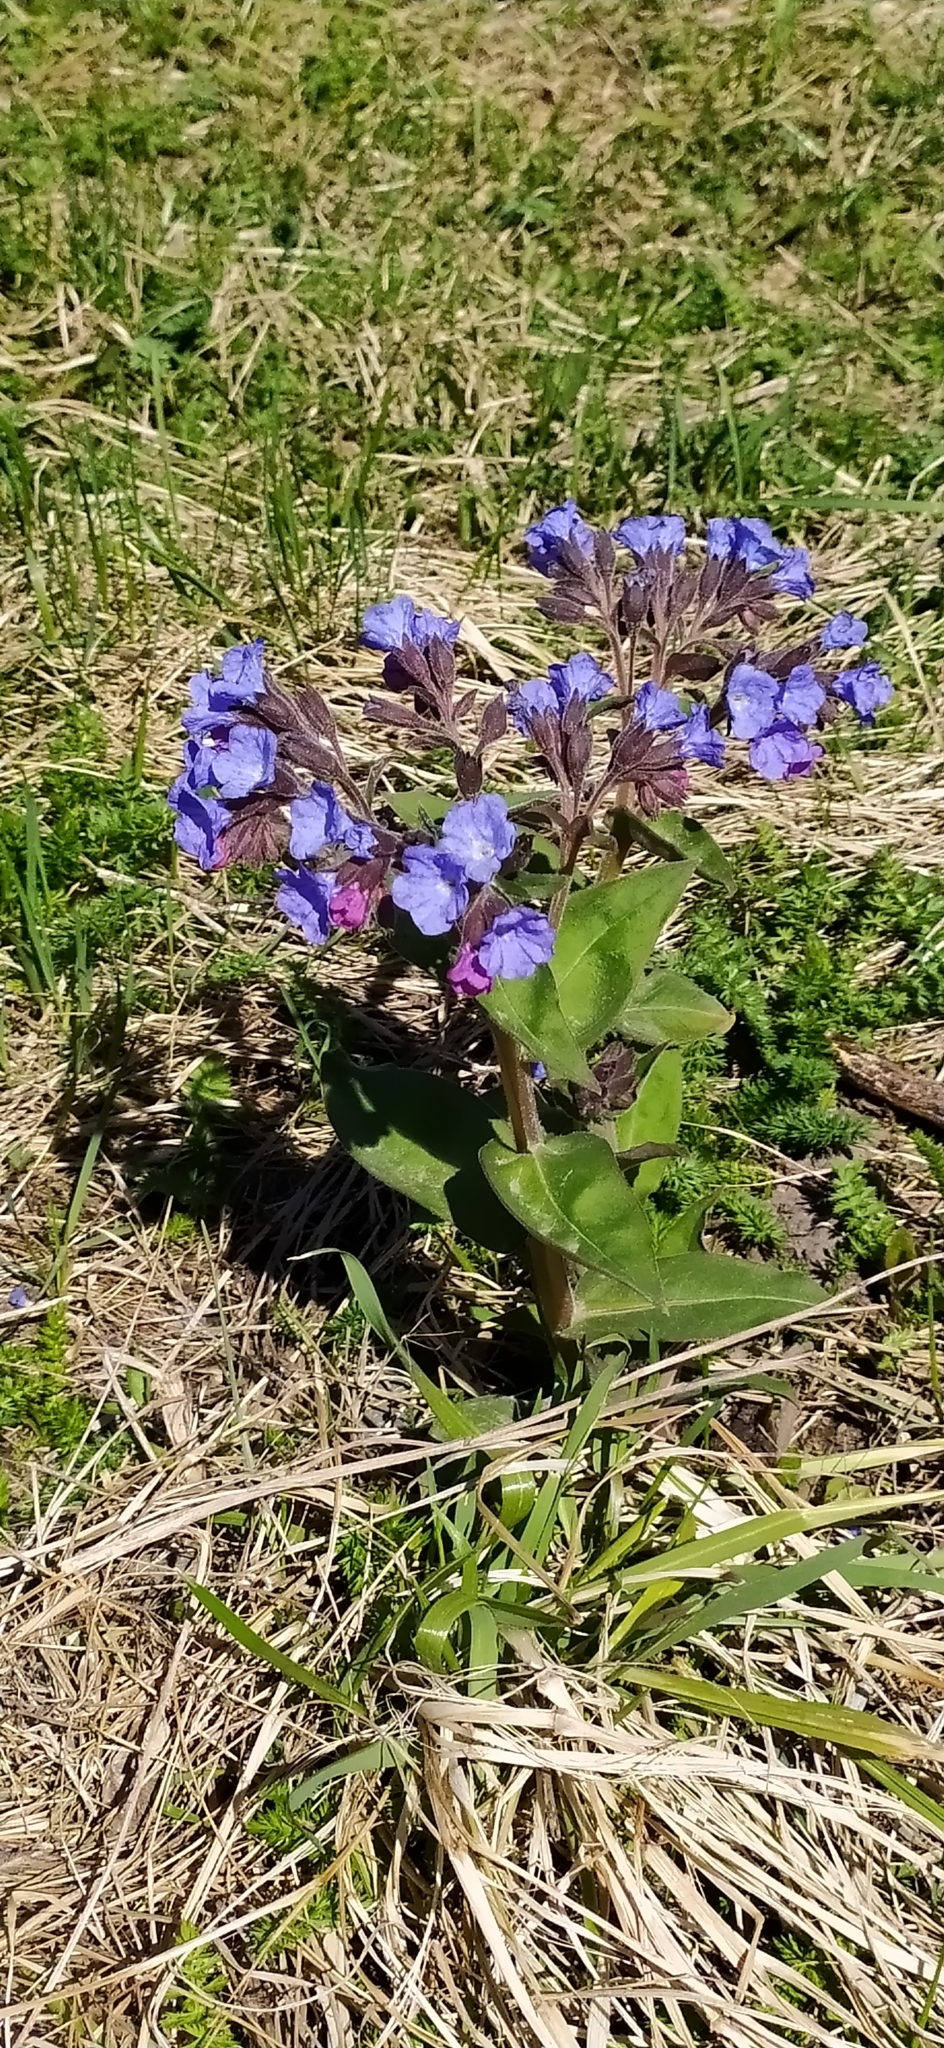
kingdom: Plantae
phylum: Tracheophyta
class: Magnoliopsida
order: Boraginales
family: Boraginaceae
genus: Pulmonaria
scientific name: Pulmonaria mollis
